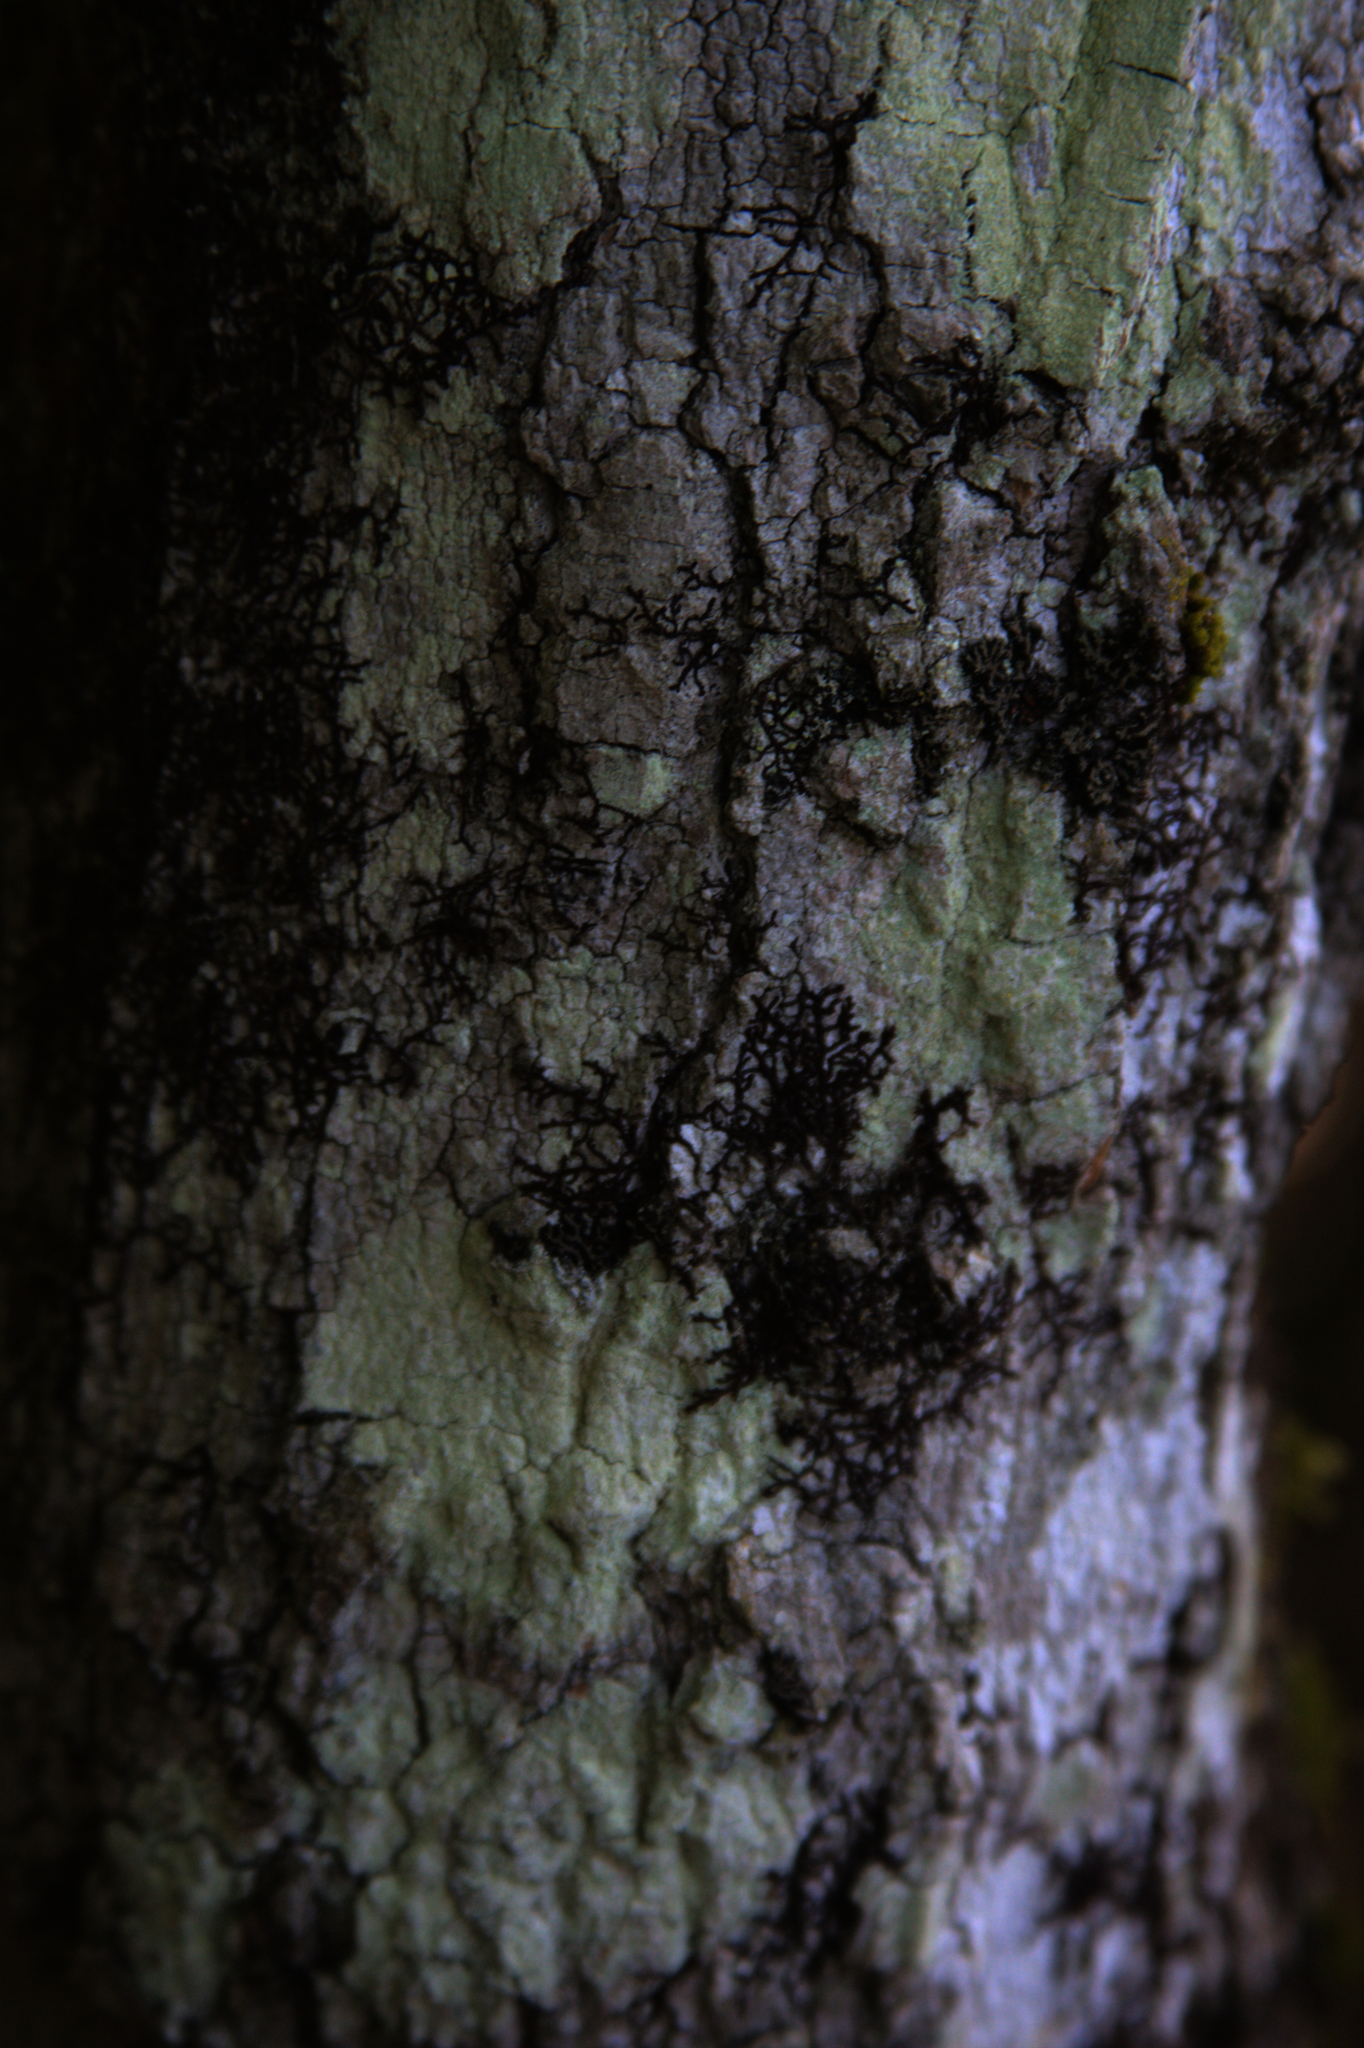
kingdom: Plantae
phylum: Marchantiophyta
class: Jungermanniopsida
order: Porellales
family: Frullaniaceae
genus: Frullania
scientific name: Frullania eboracensis
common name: New york scalewort
